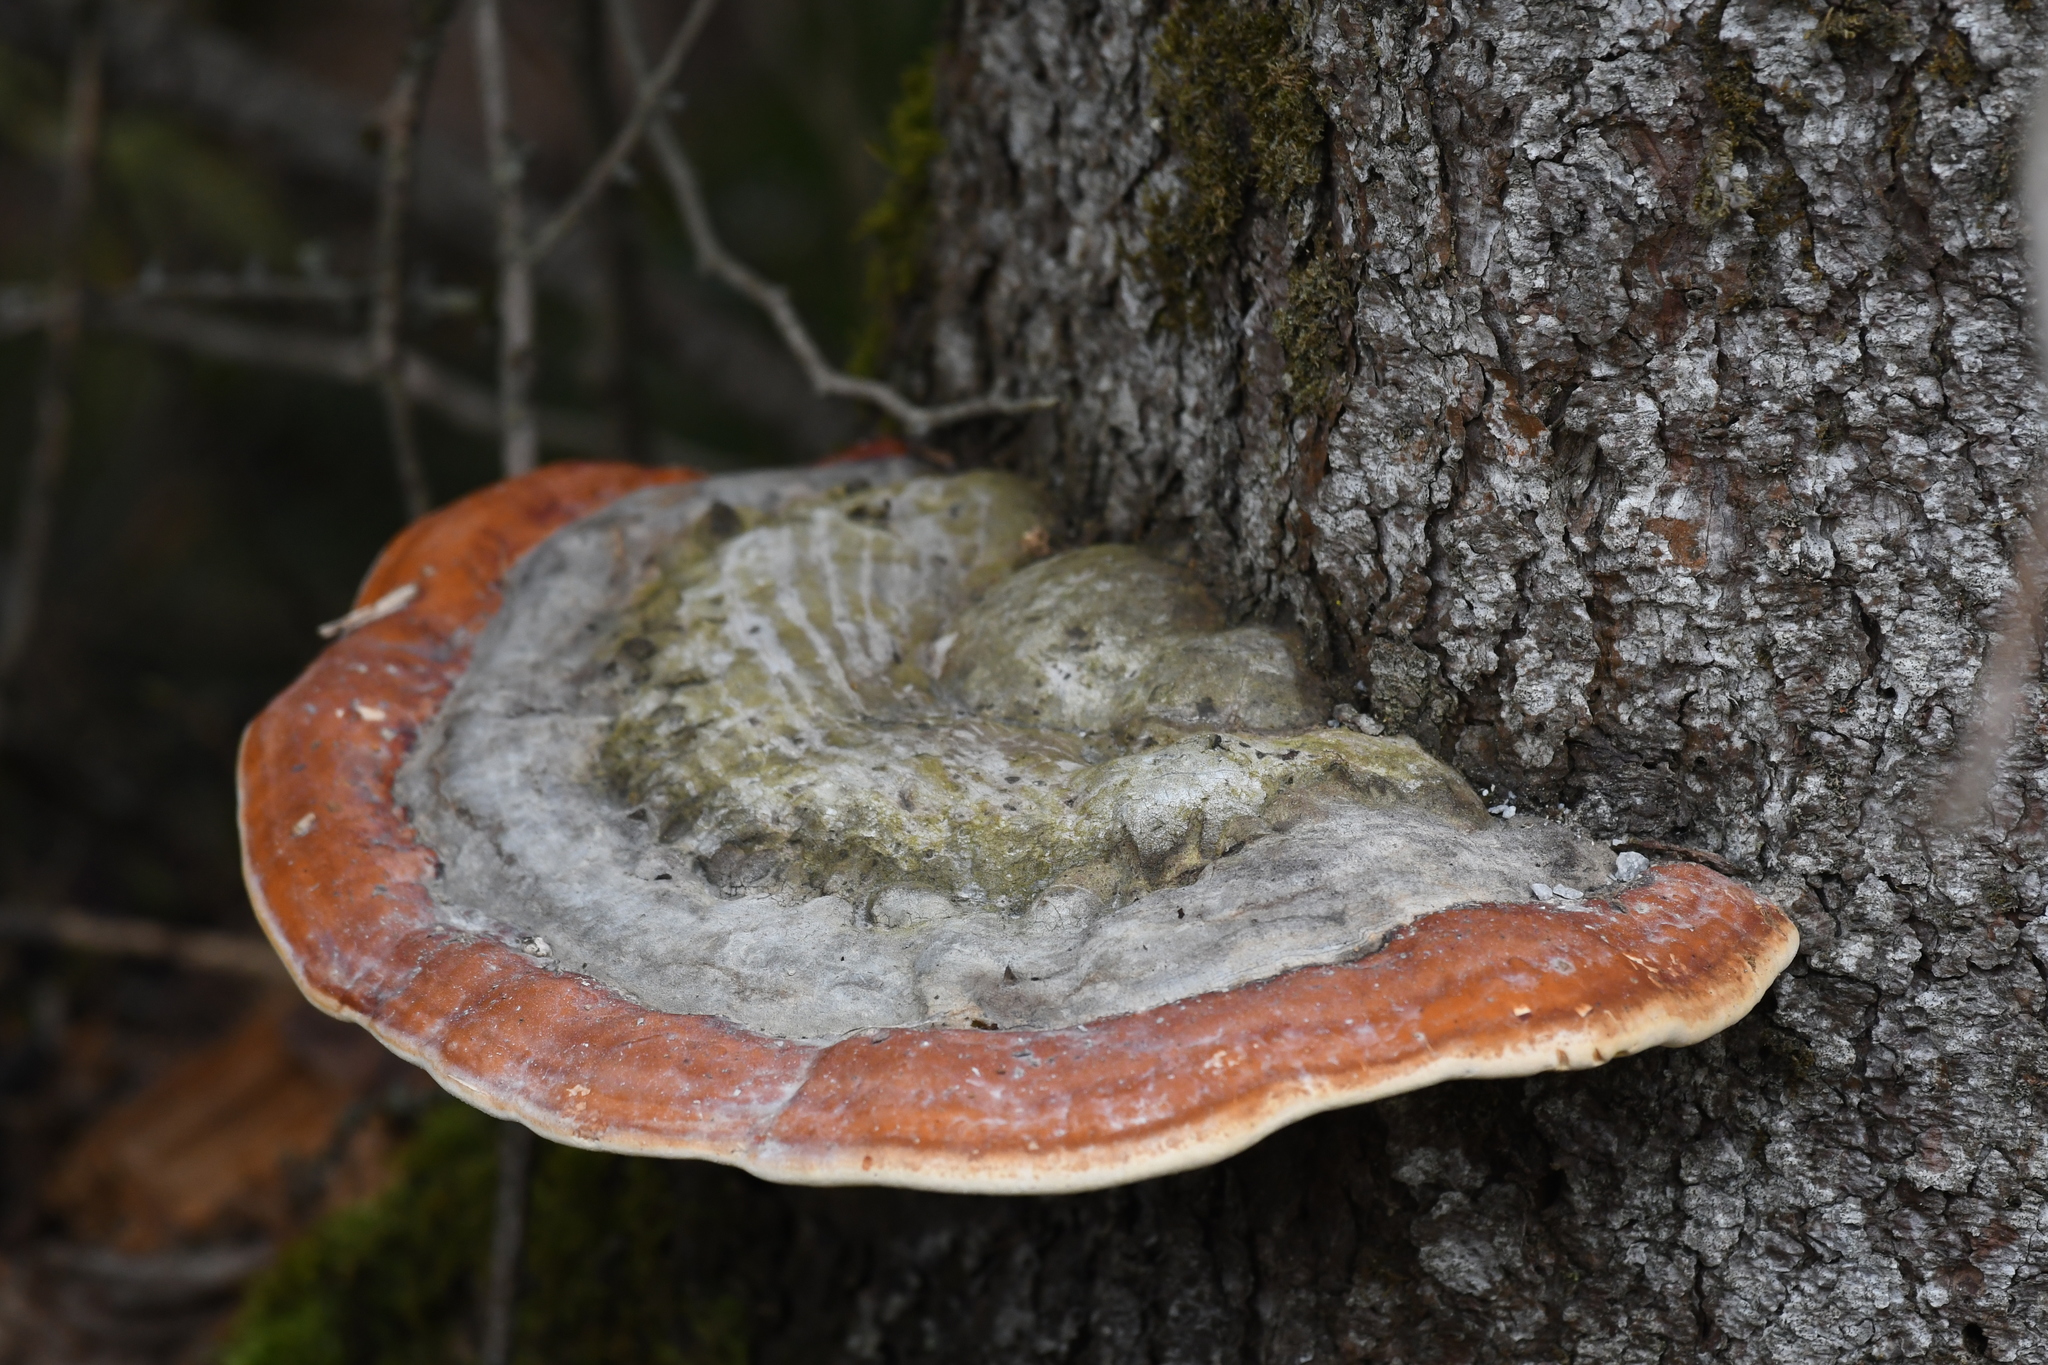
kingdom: Fungi
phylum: Basidiomycota
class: Agaricomycetes
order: Polyporales
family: Fomitopsidaceae
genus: Fomitopsis
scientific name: Fomitopsis mounceae
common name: Northern red belt
